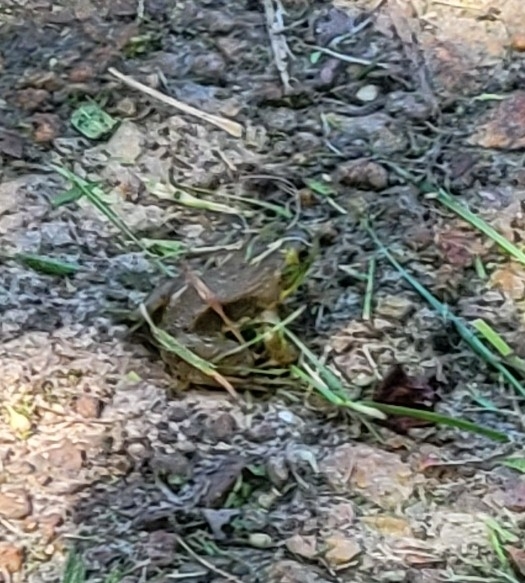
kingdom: Animalia
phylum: Chordata
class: Amphibia
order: Anura
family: Ranidae
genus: Lithobates
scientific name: Lithobates catesbeianus
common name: American bullfrog
